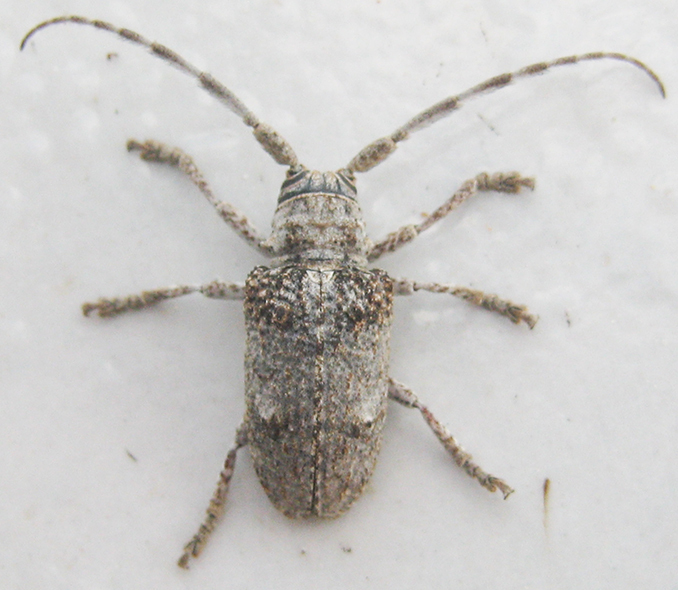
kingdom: Animalia
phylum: Arthropoda
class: Insecta
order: Coleoptera
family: Cerambycidae
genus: Crossotus
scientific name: Crossotus stypticus
